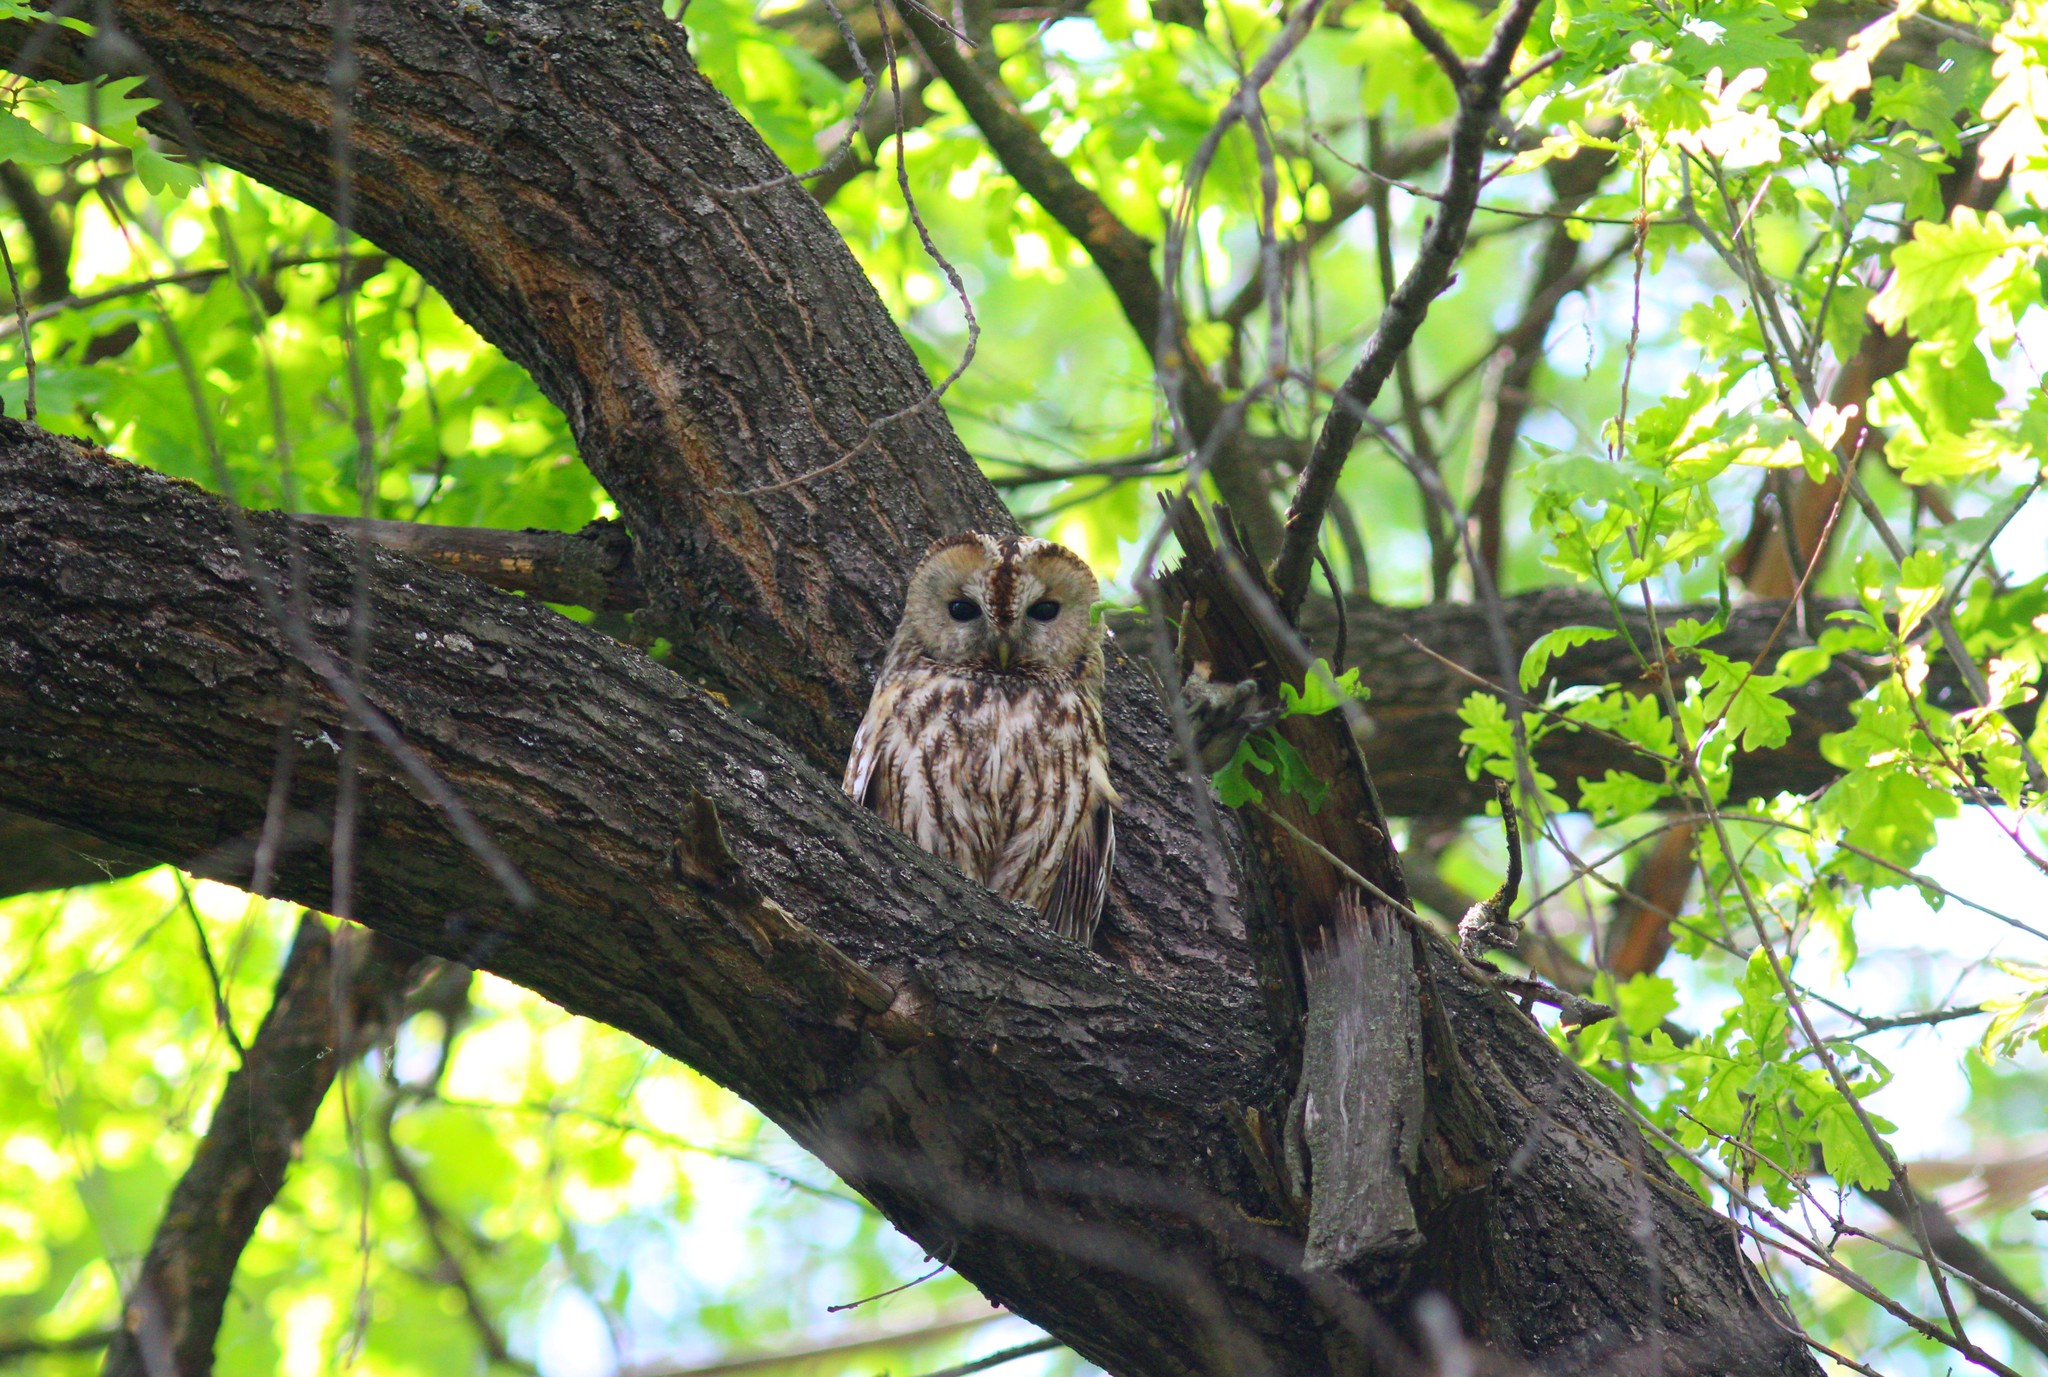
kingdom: Animalia
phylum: Chordata
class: Aves
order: Strigiformes
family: Strigidae
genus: Strix
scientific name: Strix aluco
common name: Tawny owl
